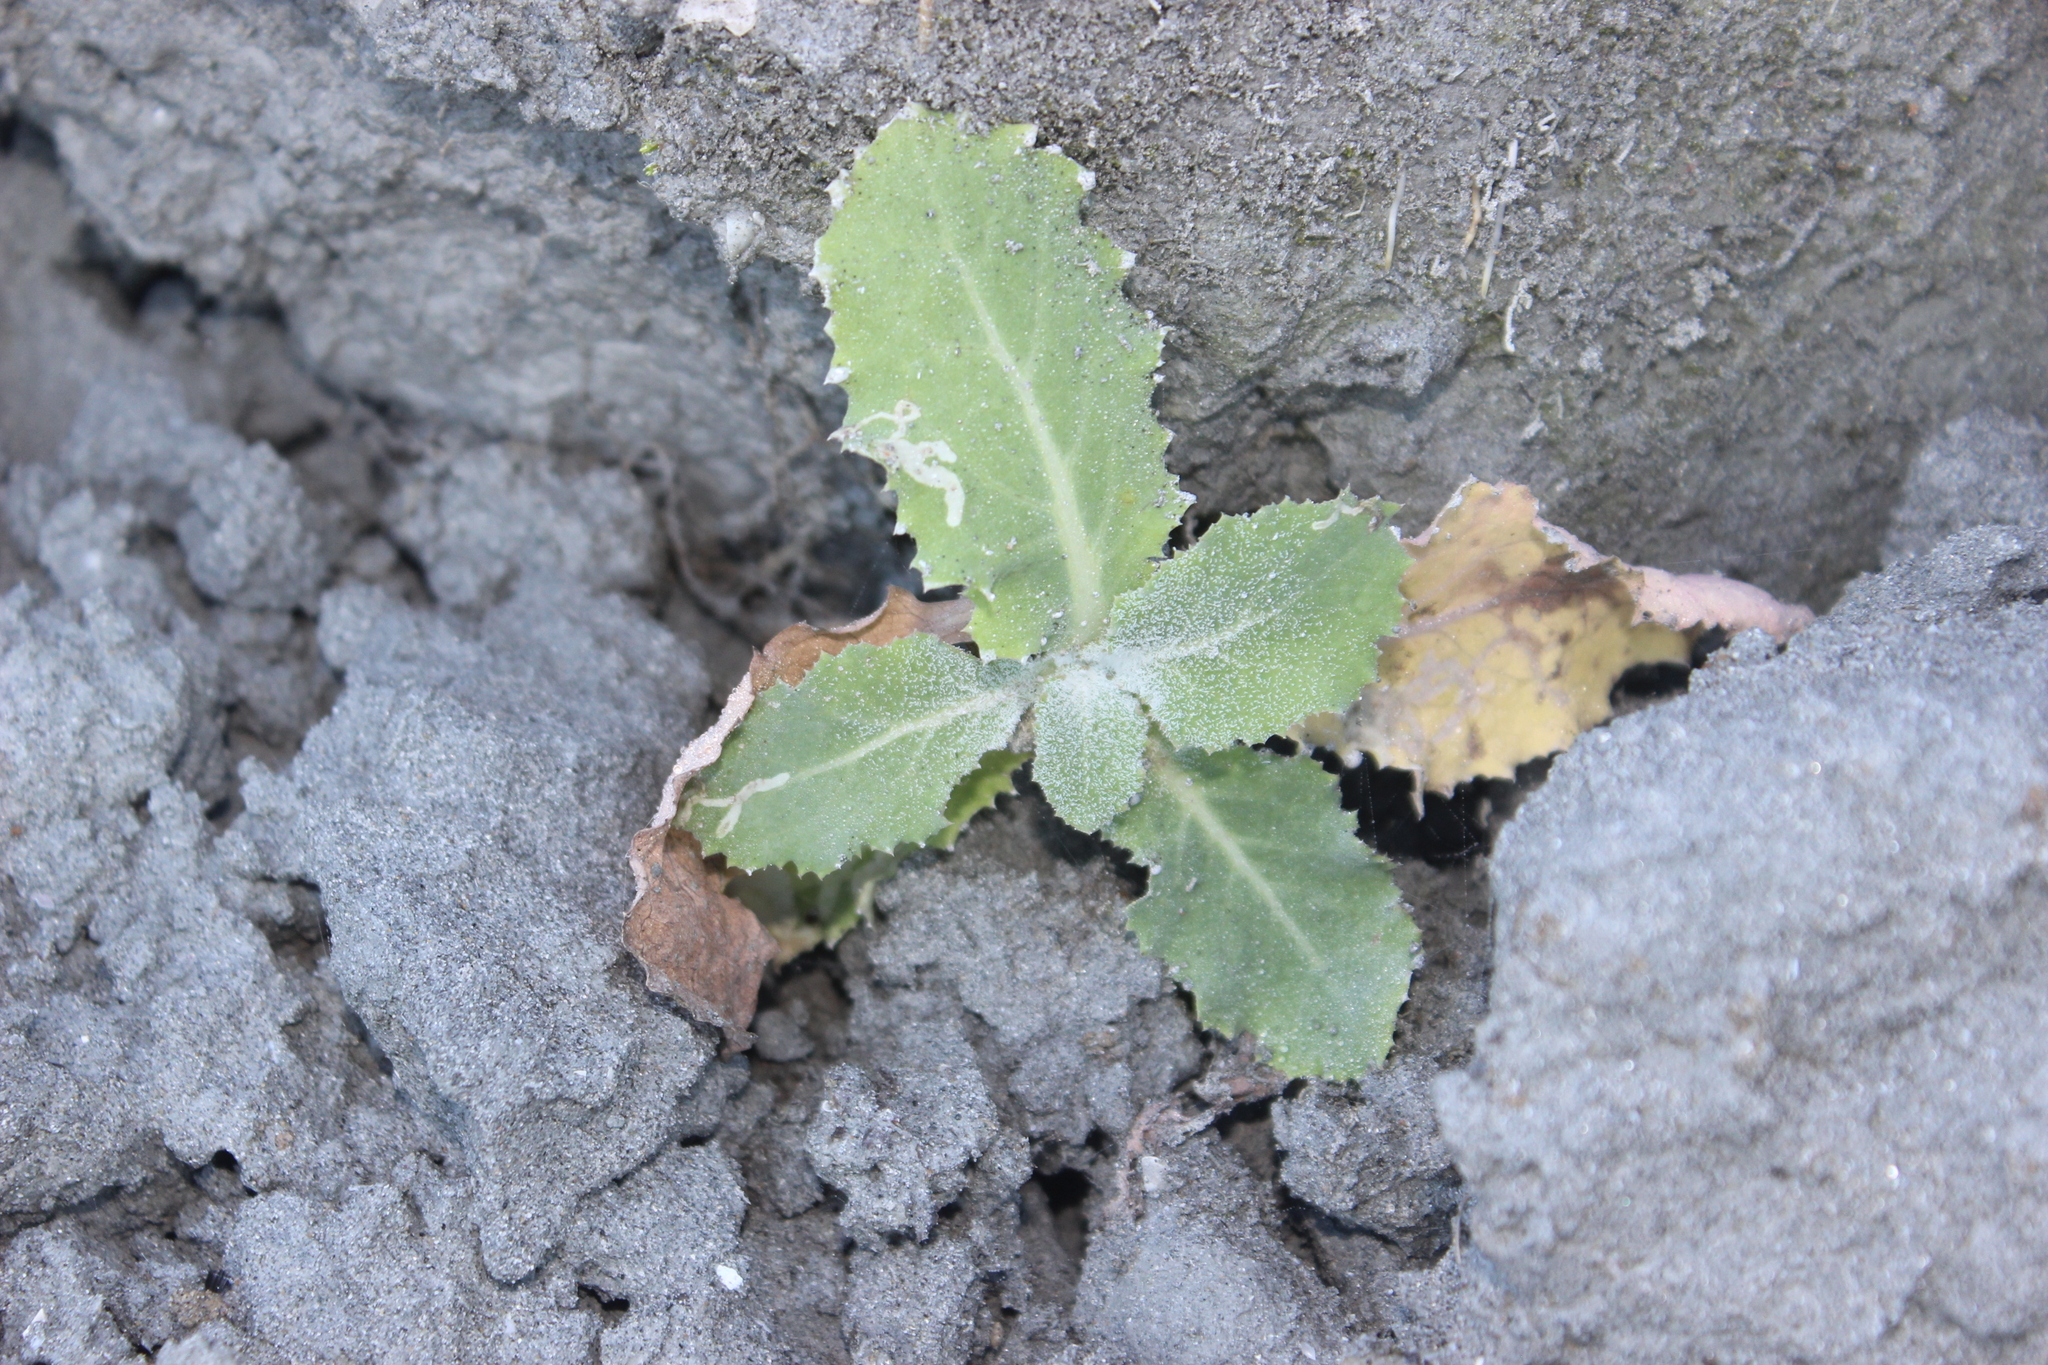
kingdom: Plantae
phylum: Tracheophyta
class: Magnoliopsida
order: Asterales
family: Asteraceae
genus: Sonchus
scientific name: Sonchus kirkii
